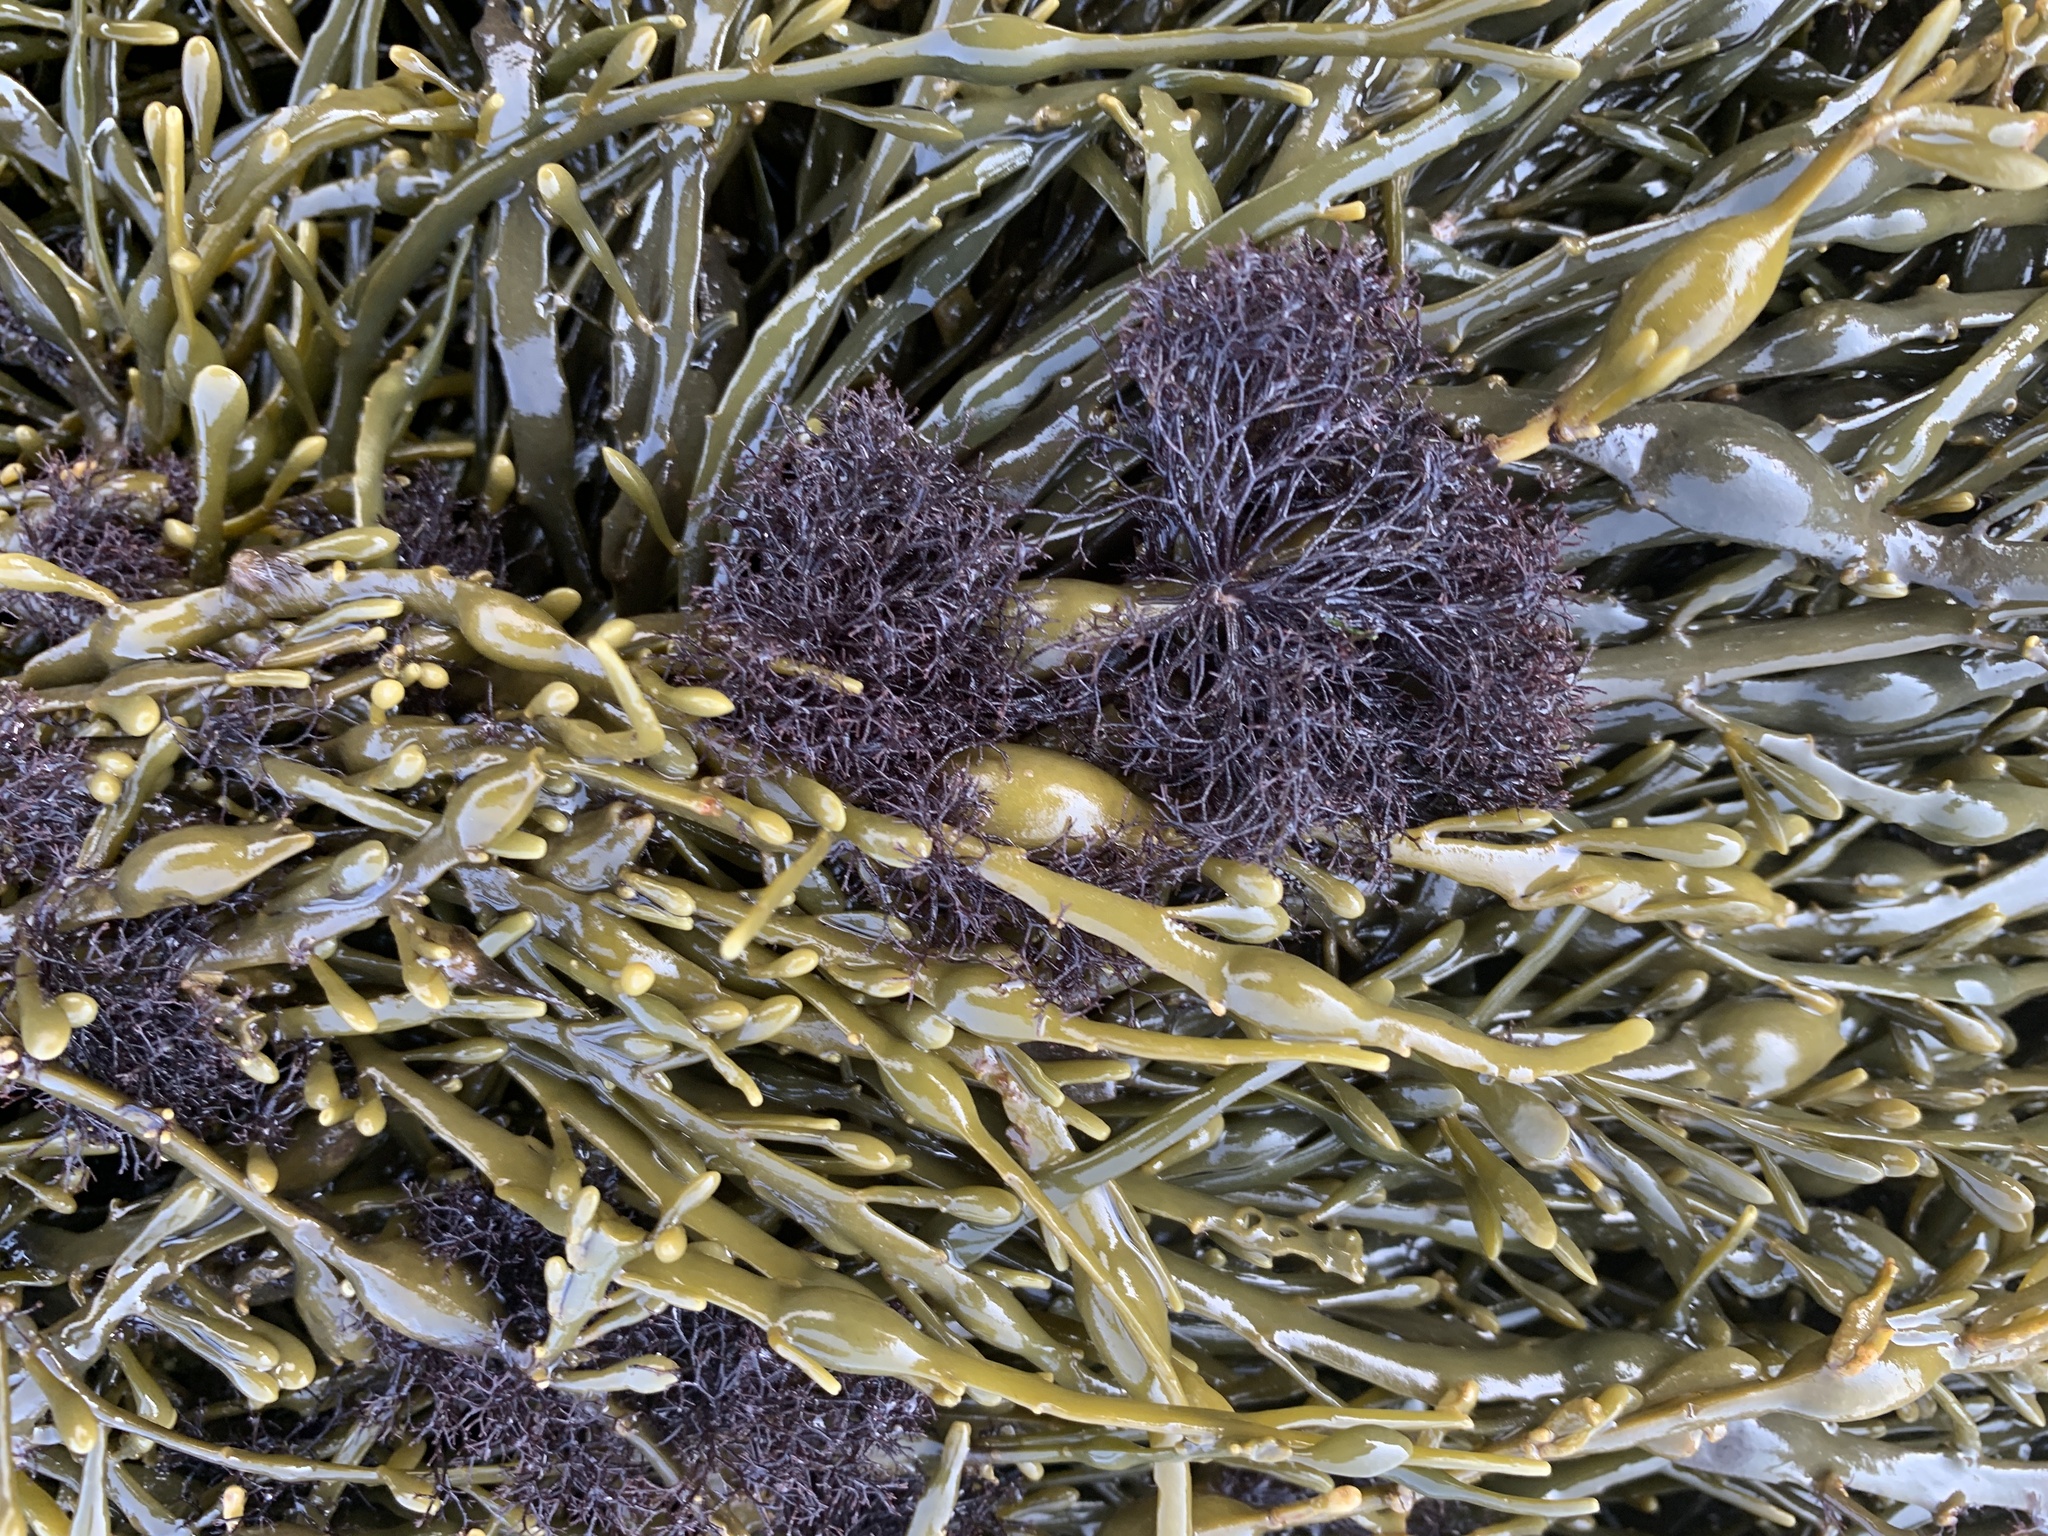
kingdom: Plantae
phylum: Rhodophyta
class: Florideophyceae
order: Ceramiales
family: Rhodomelaceae
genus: Vertebrata
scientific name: Vertebrata lanosa
